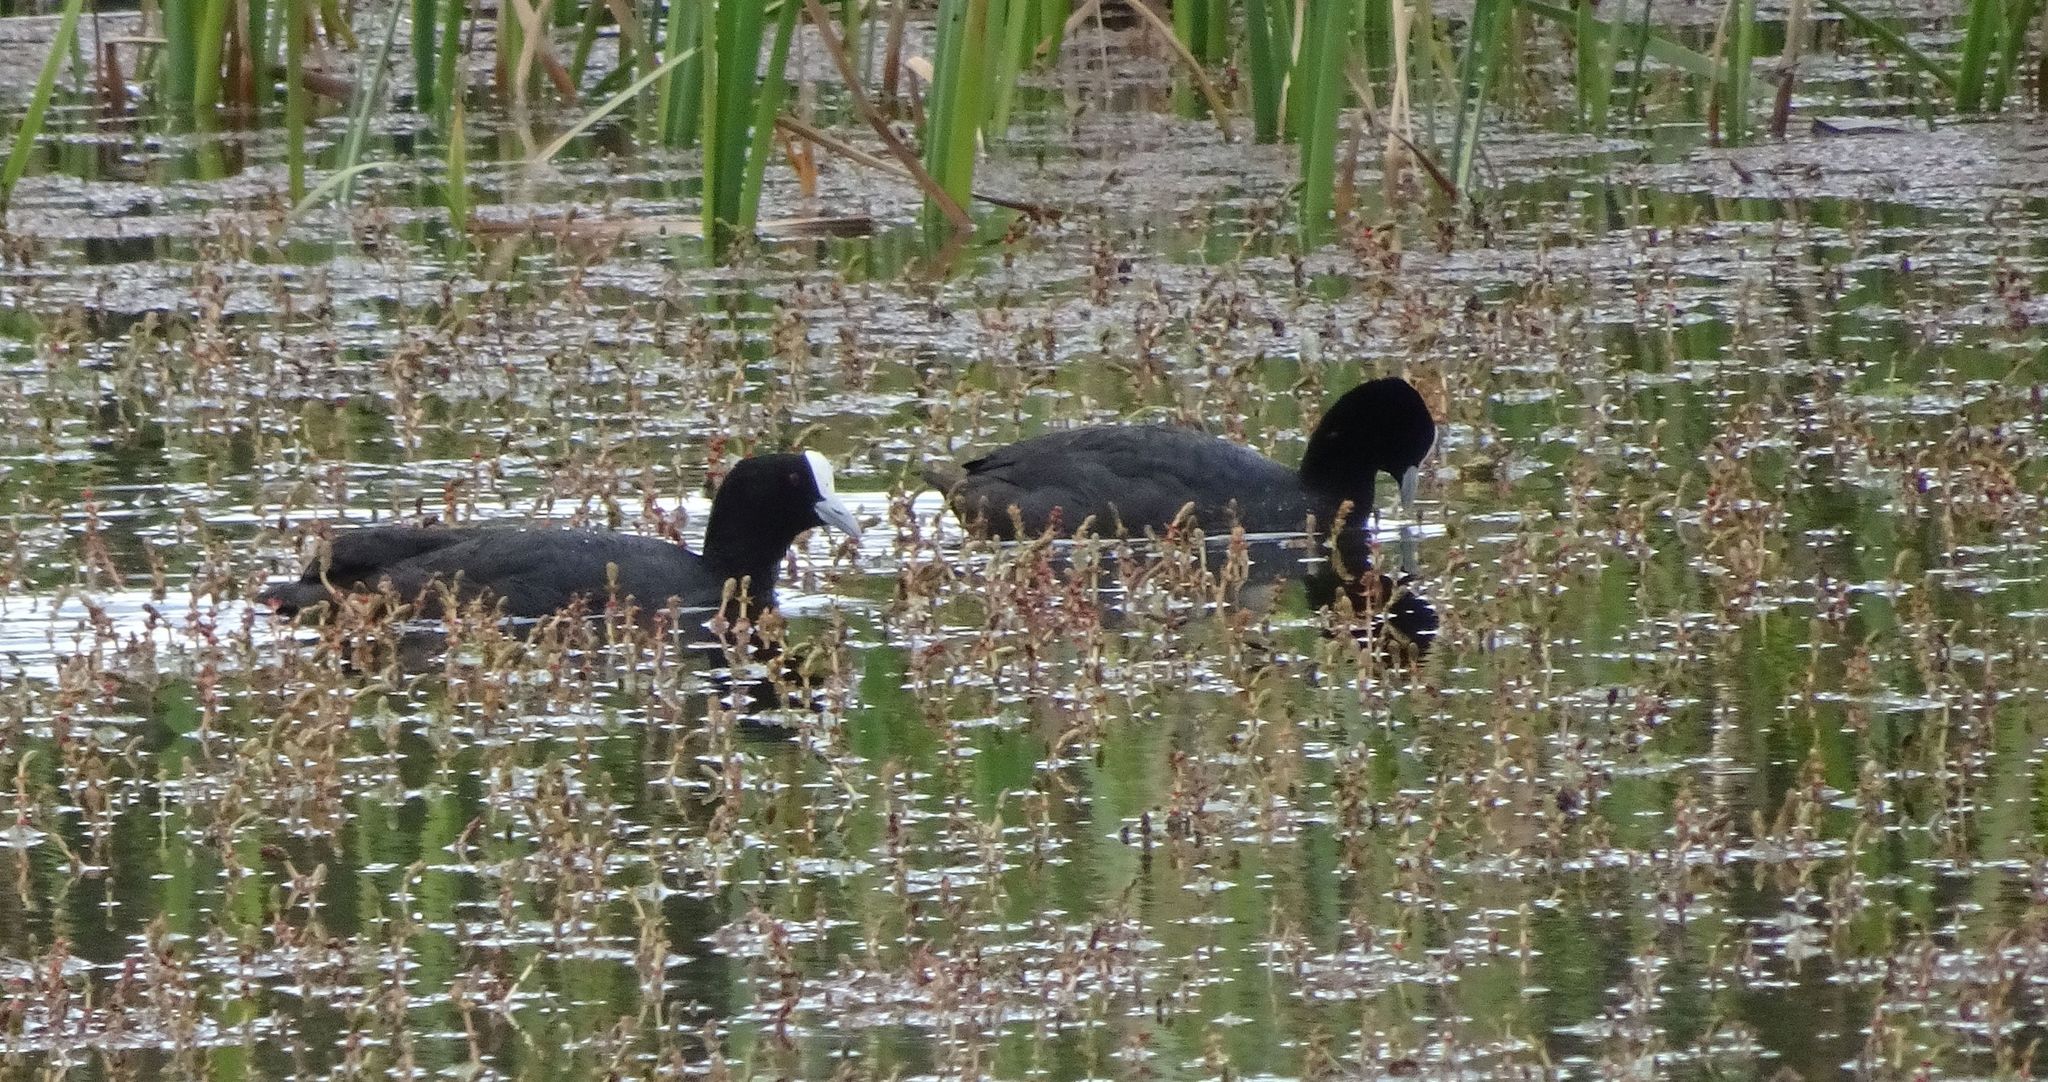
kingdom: Animalia
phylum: Chordata
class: Aves
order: Gruiformes
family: Rallidae
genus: Fulica
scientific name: Fulica atra
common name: Eurasian coot
